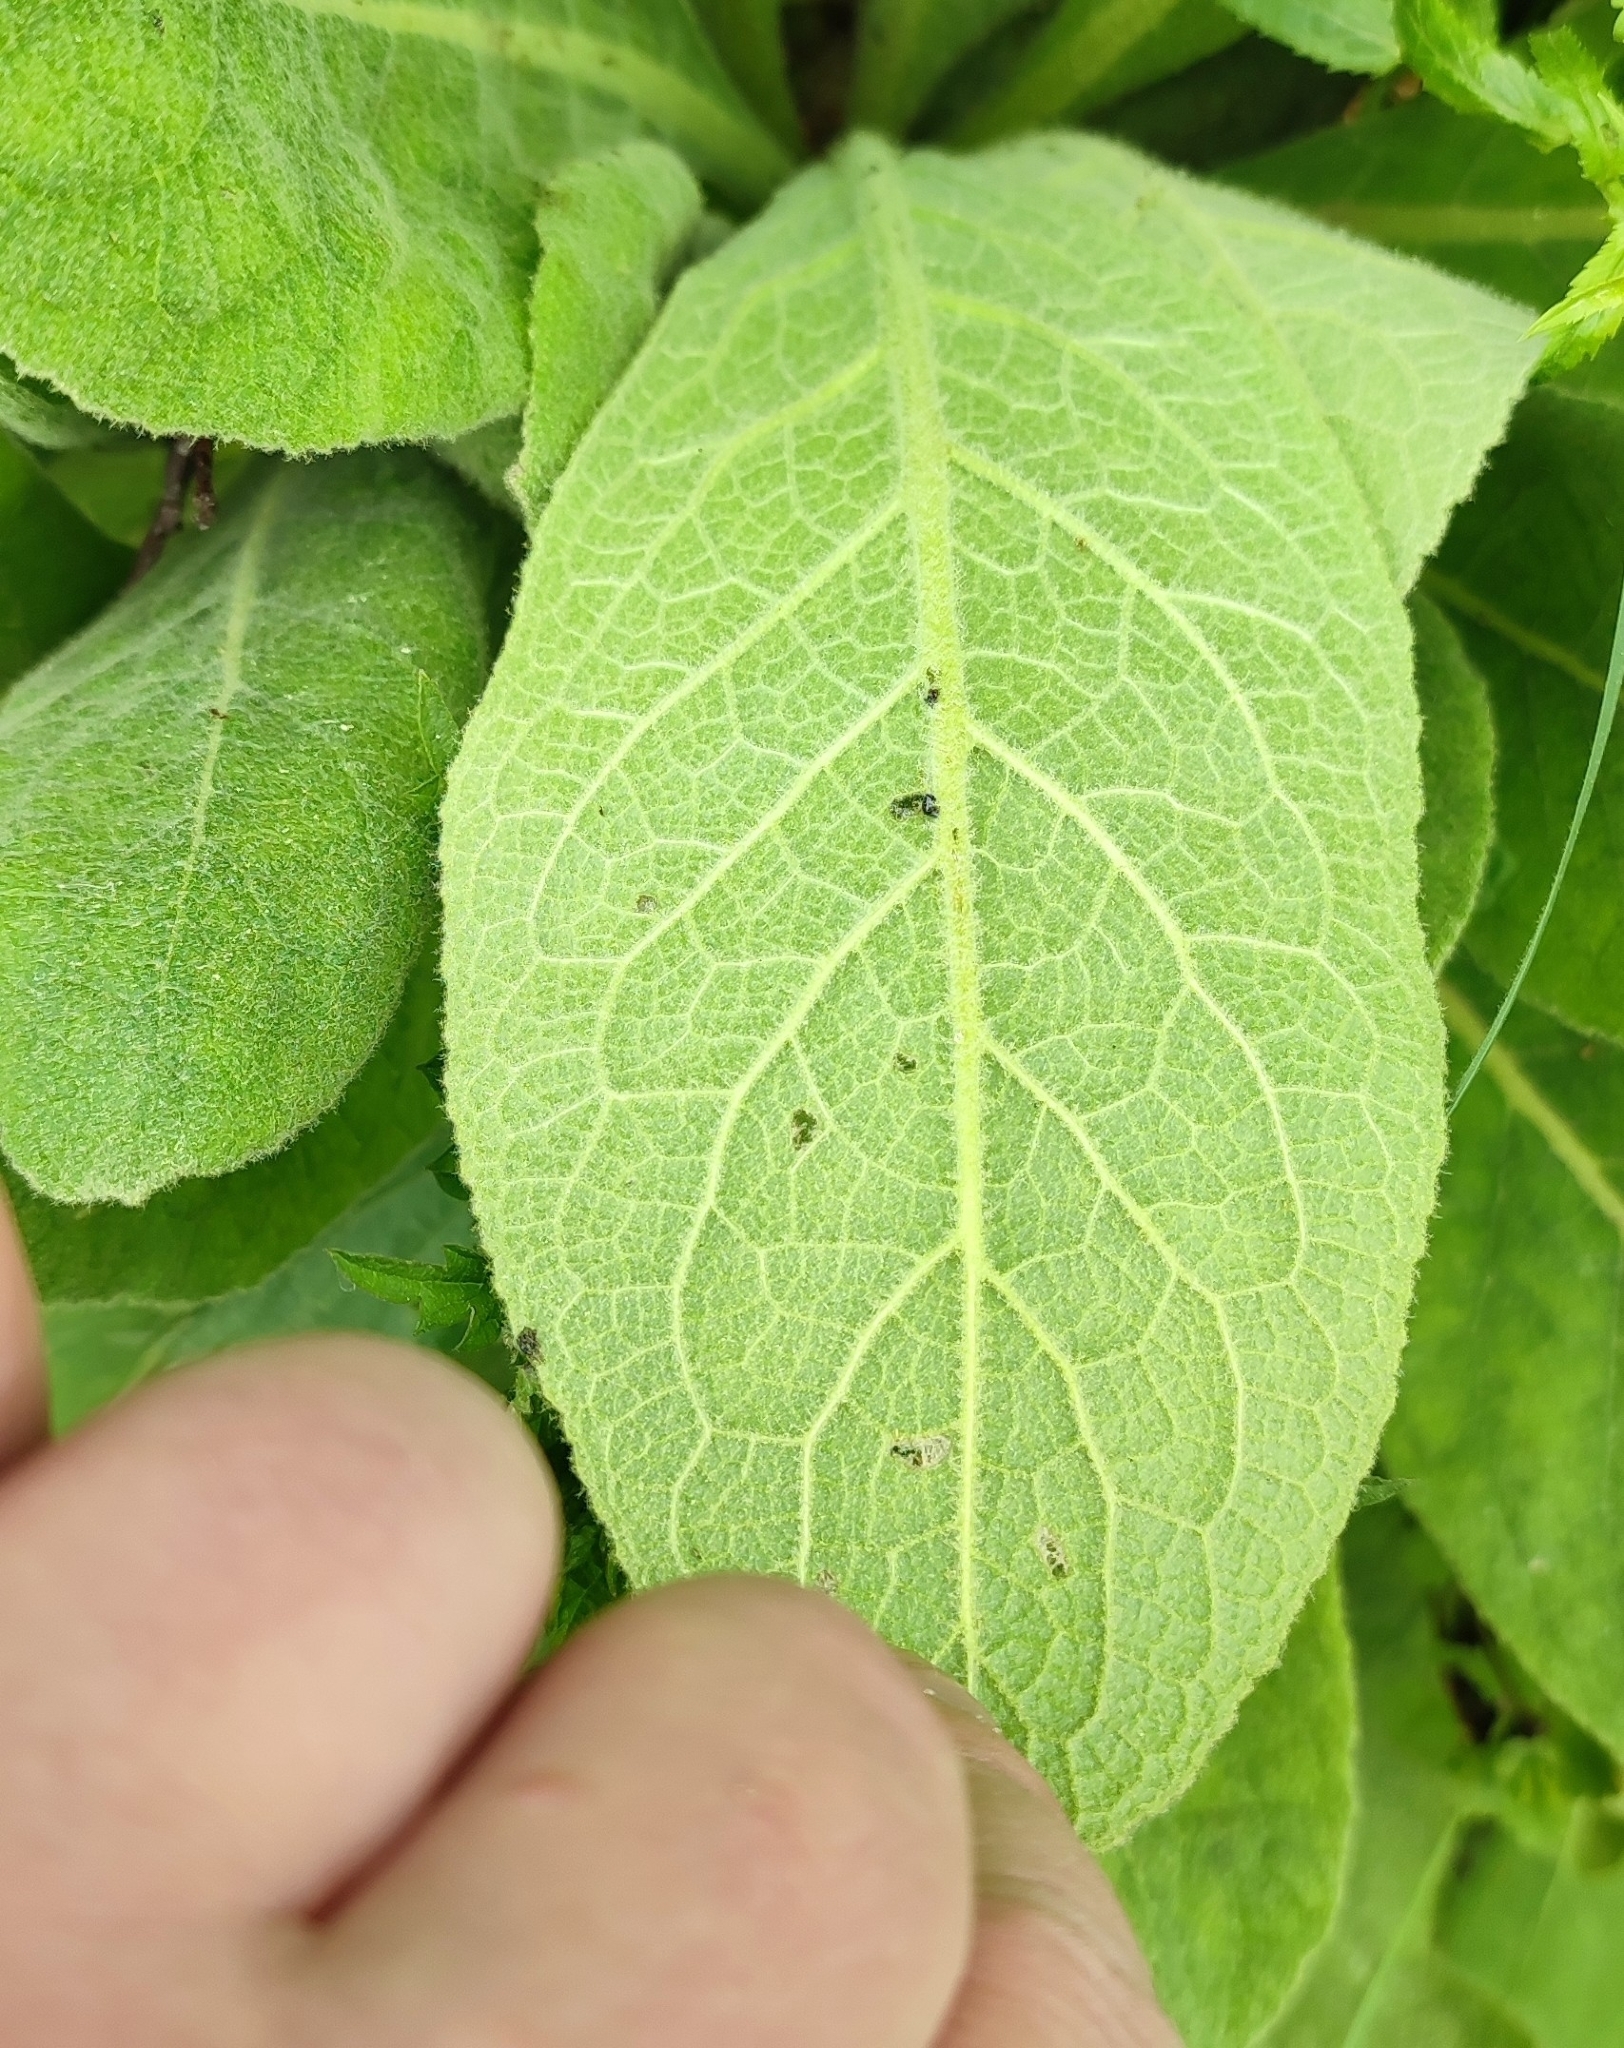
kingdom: Plantae
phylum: Tracheophyta
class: Magnoliopsida
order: Lamiales
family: Scrophulariaceae
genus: Verbascum
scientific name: Verbascum thapsus
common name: Common mullein
